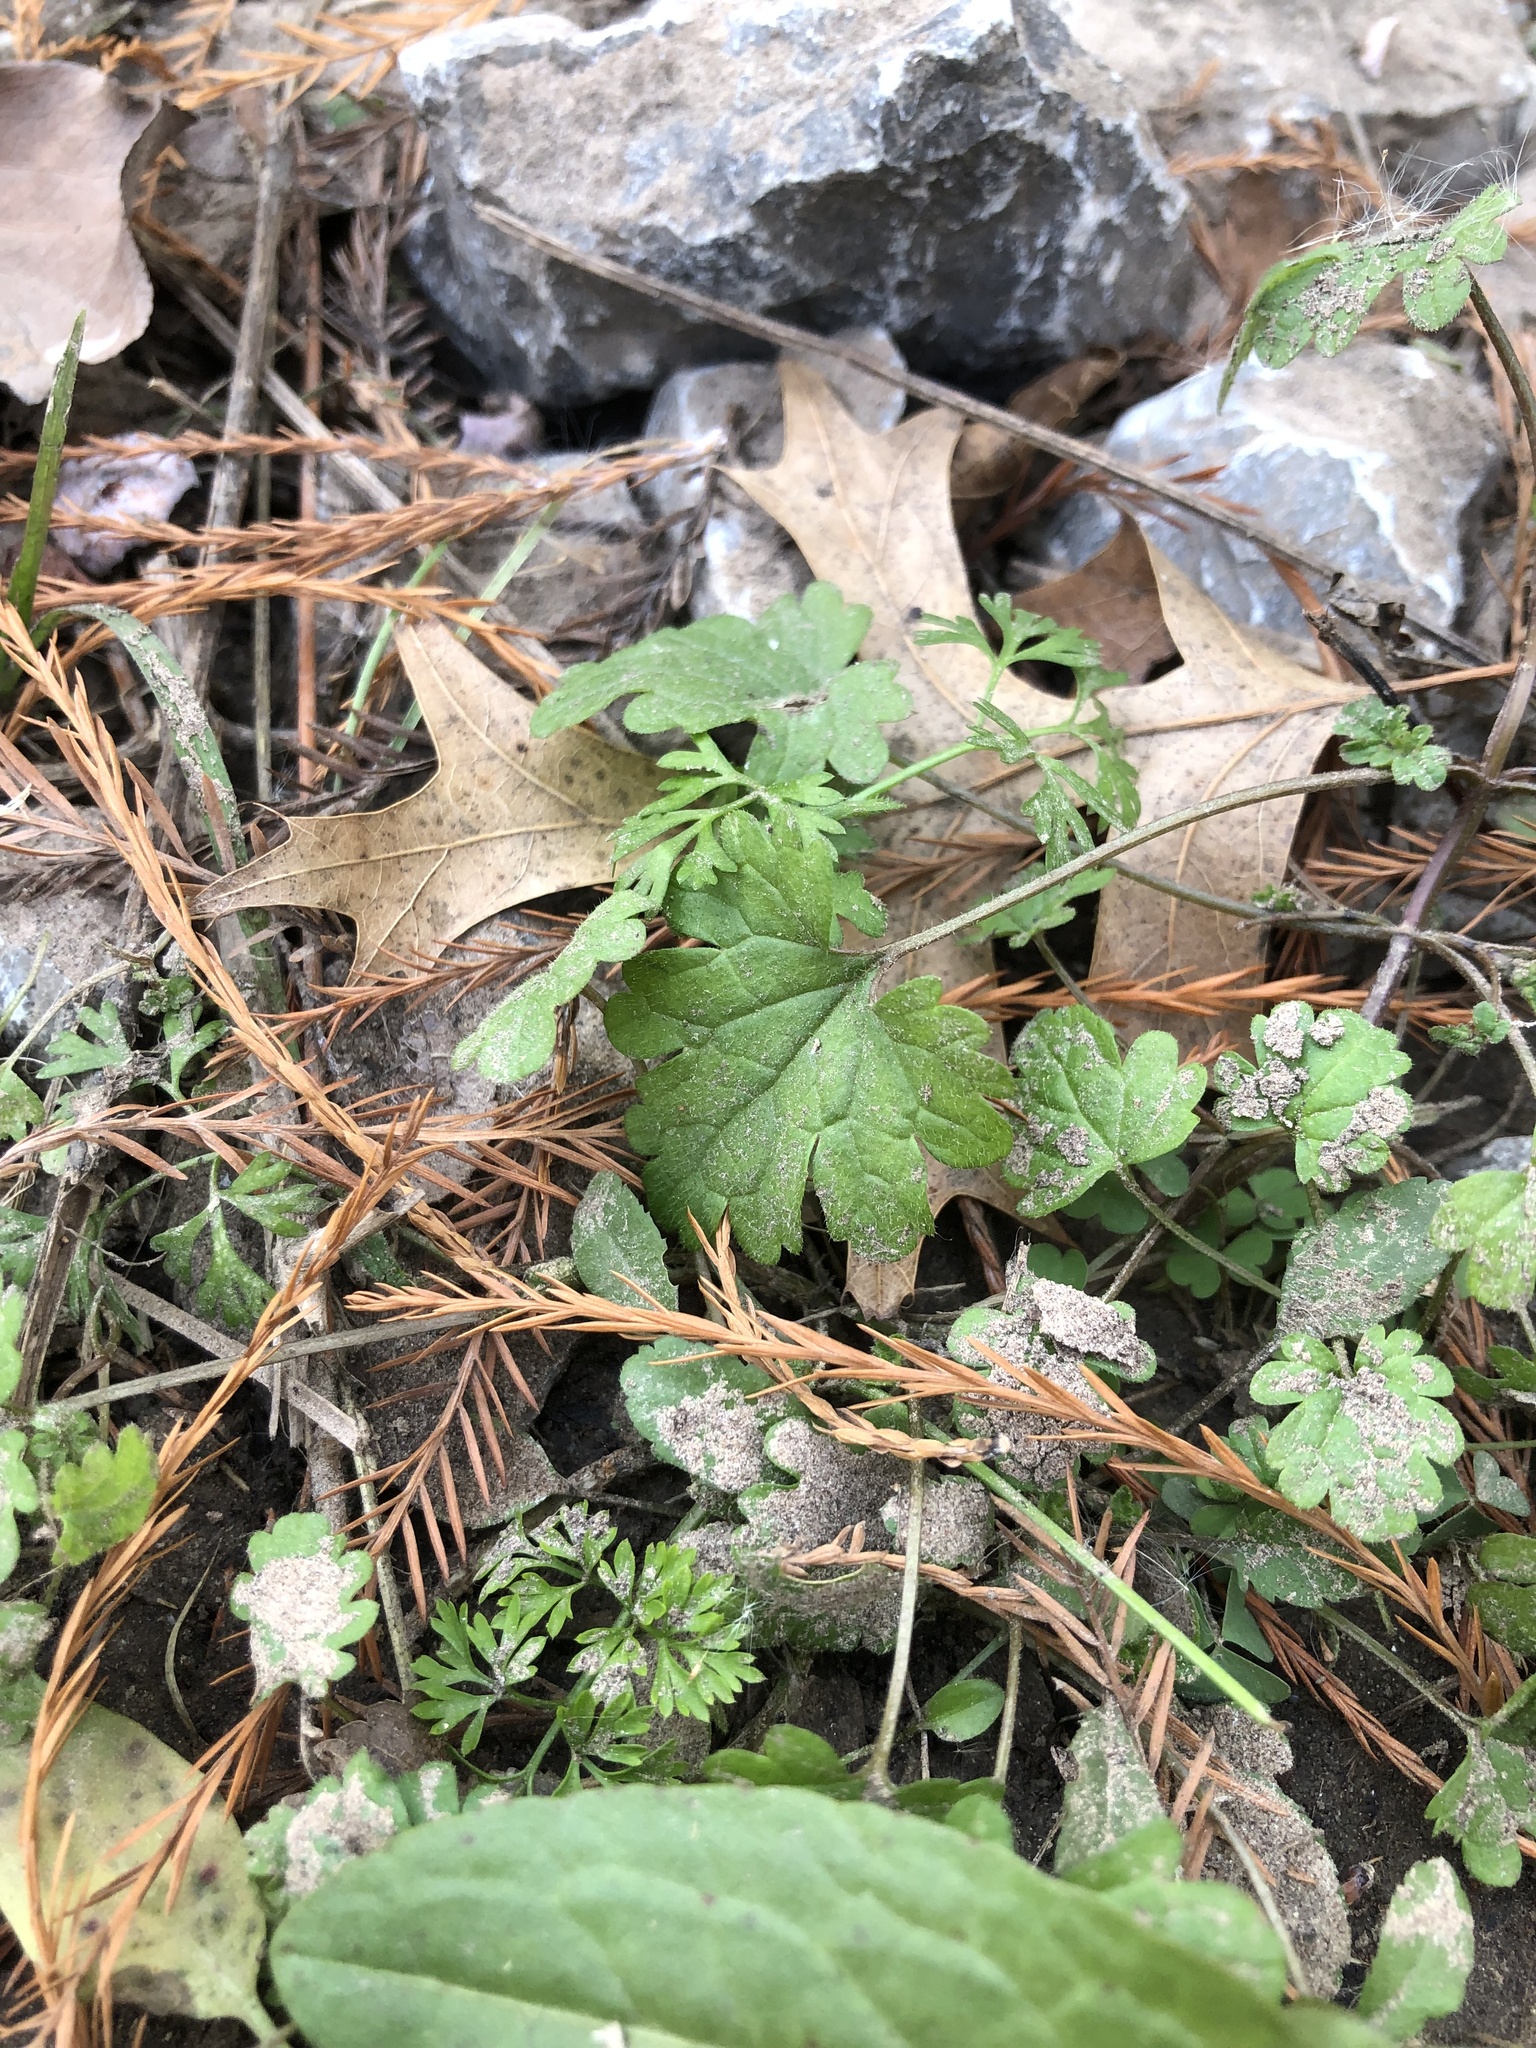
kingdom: Plantae
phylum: Tracheophyta
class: Magnoliopsida
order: Lamiales
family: Lamiaceae
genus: Lamium
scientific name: Lamium amplexicaule
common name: Henbit dead-nettle
